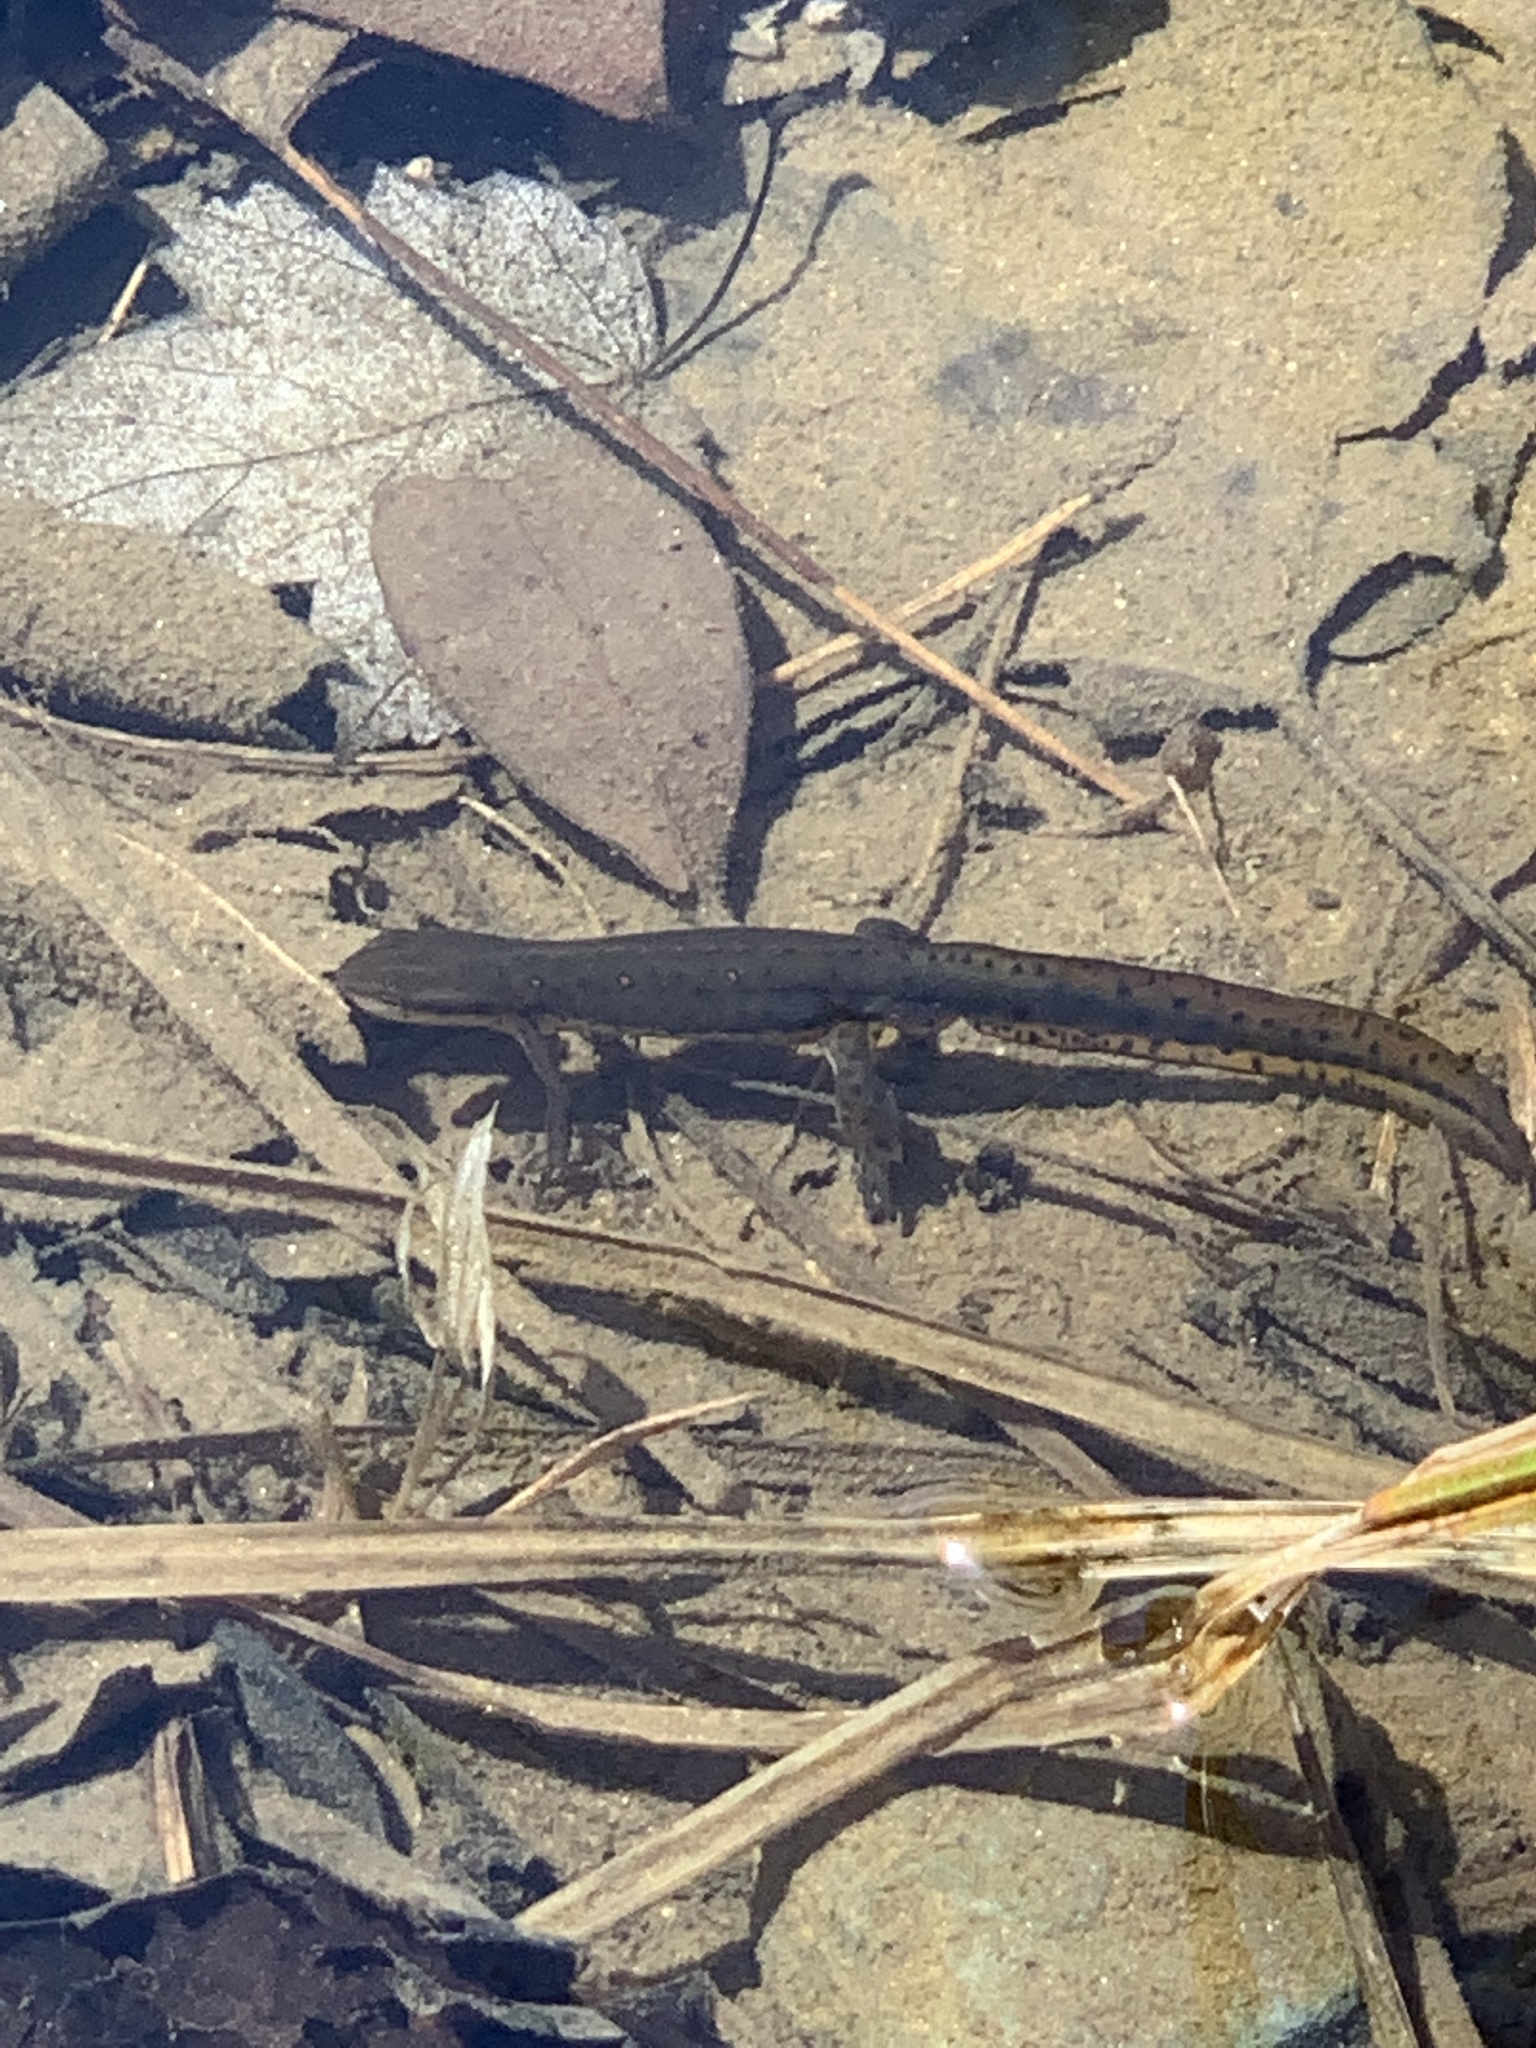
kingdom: Animalia
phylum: Chordata
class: Amphibia
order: Caudata
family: Salamandridae
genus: Notophthalmus
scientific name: Notophthalmus viridescens
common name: Eastern newt
